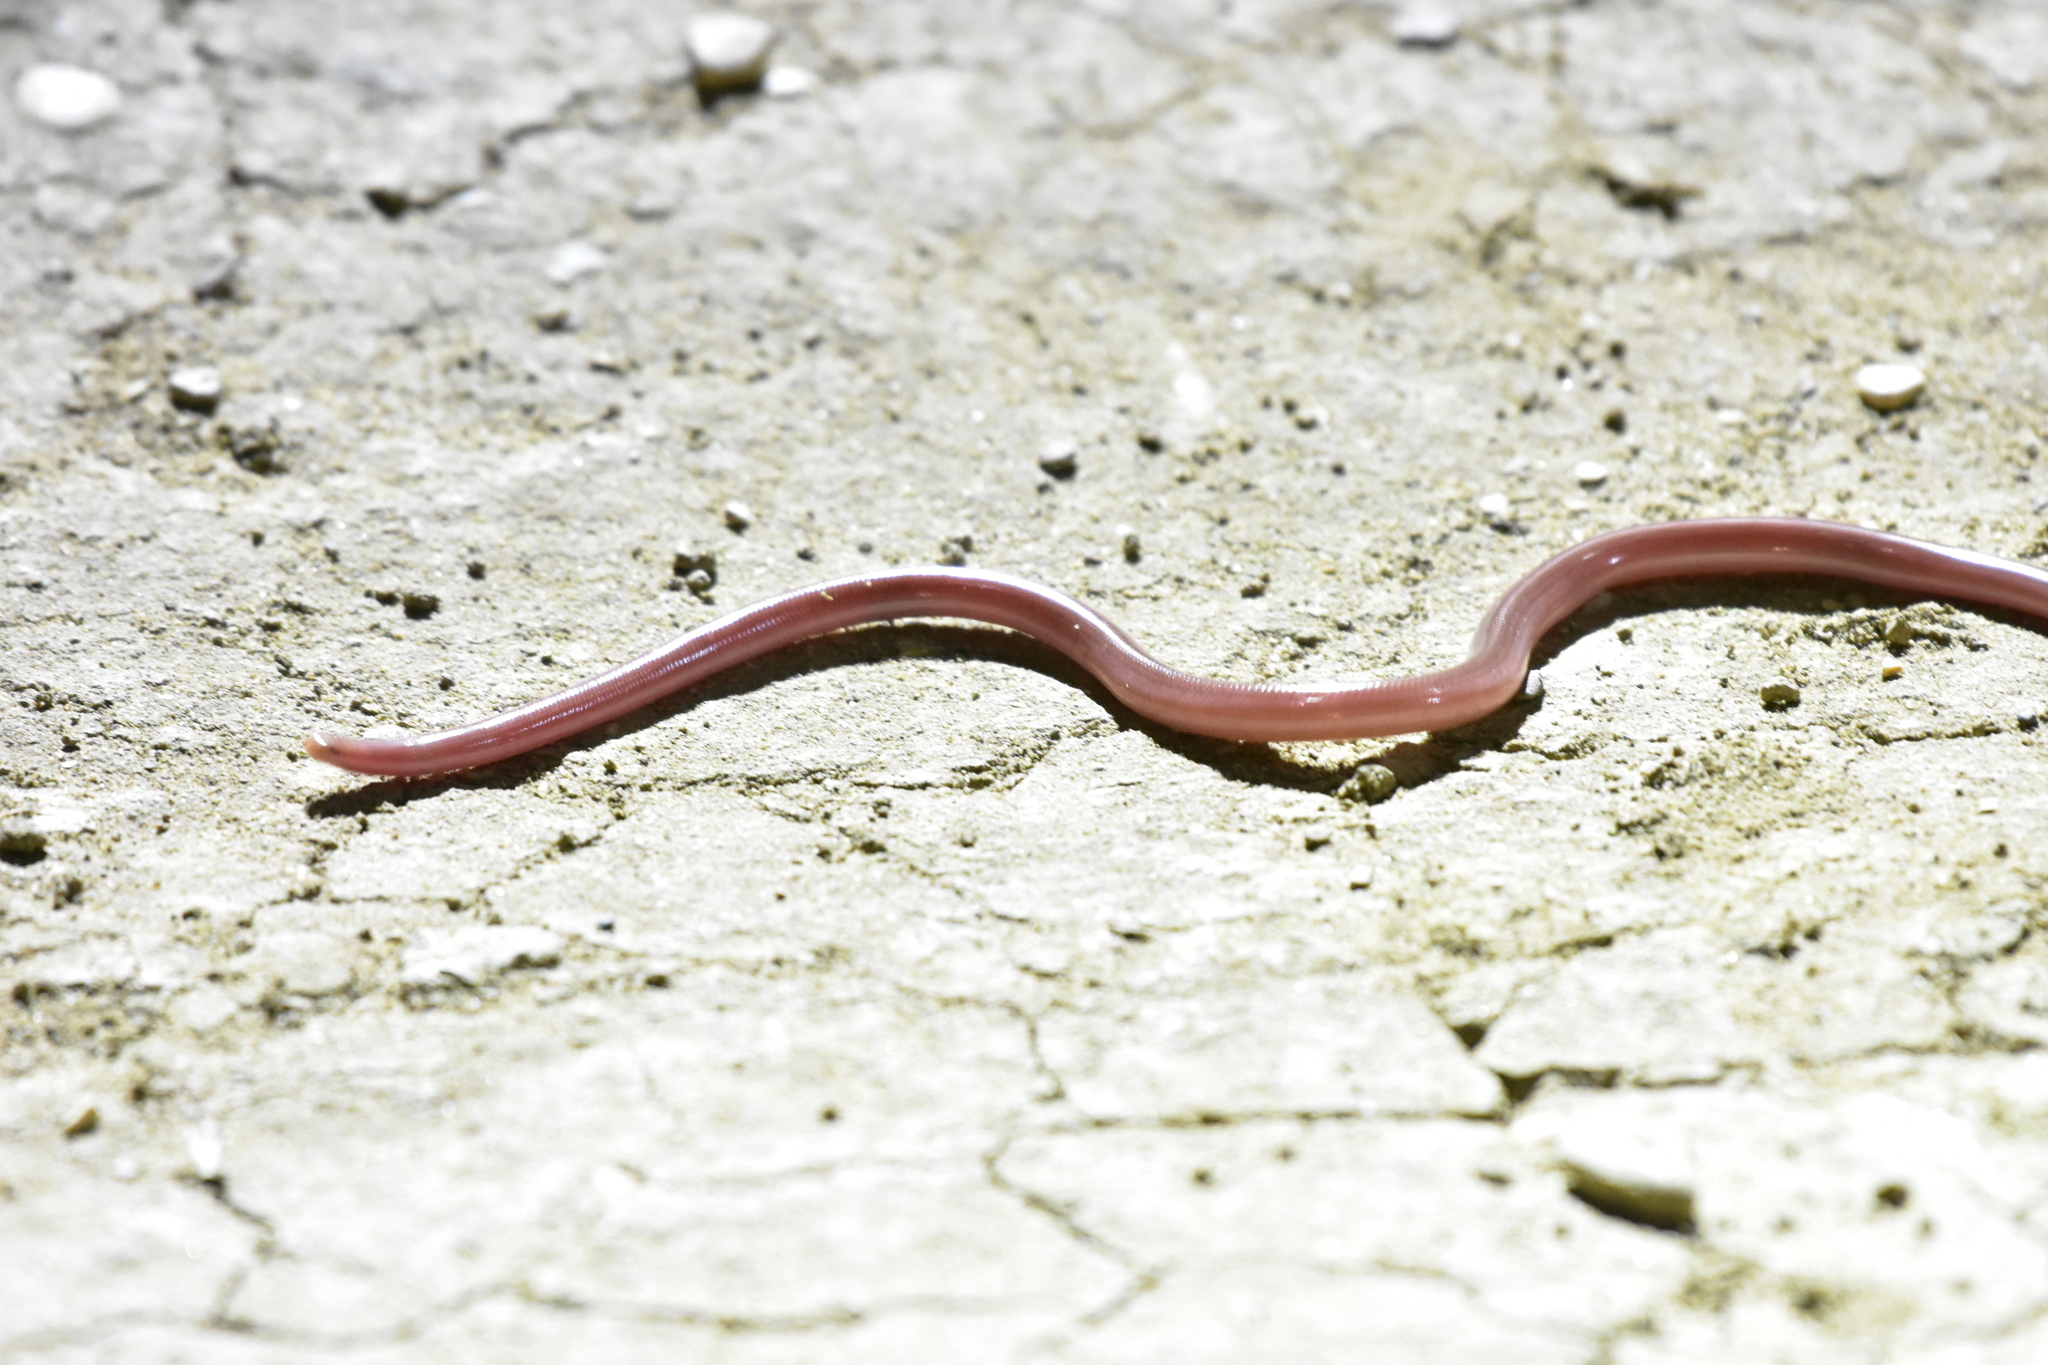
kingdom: Animalia
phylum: Chordata
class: Squamata
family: Typhlopidae
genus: Xerotyphlops
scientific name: Xerotyphlops vermicularis
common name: Eurasian blind snake
